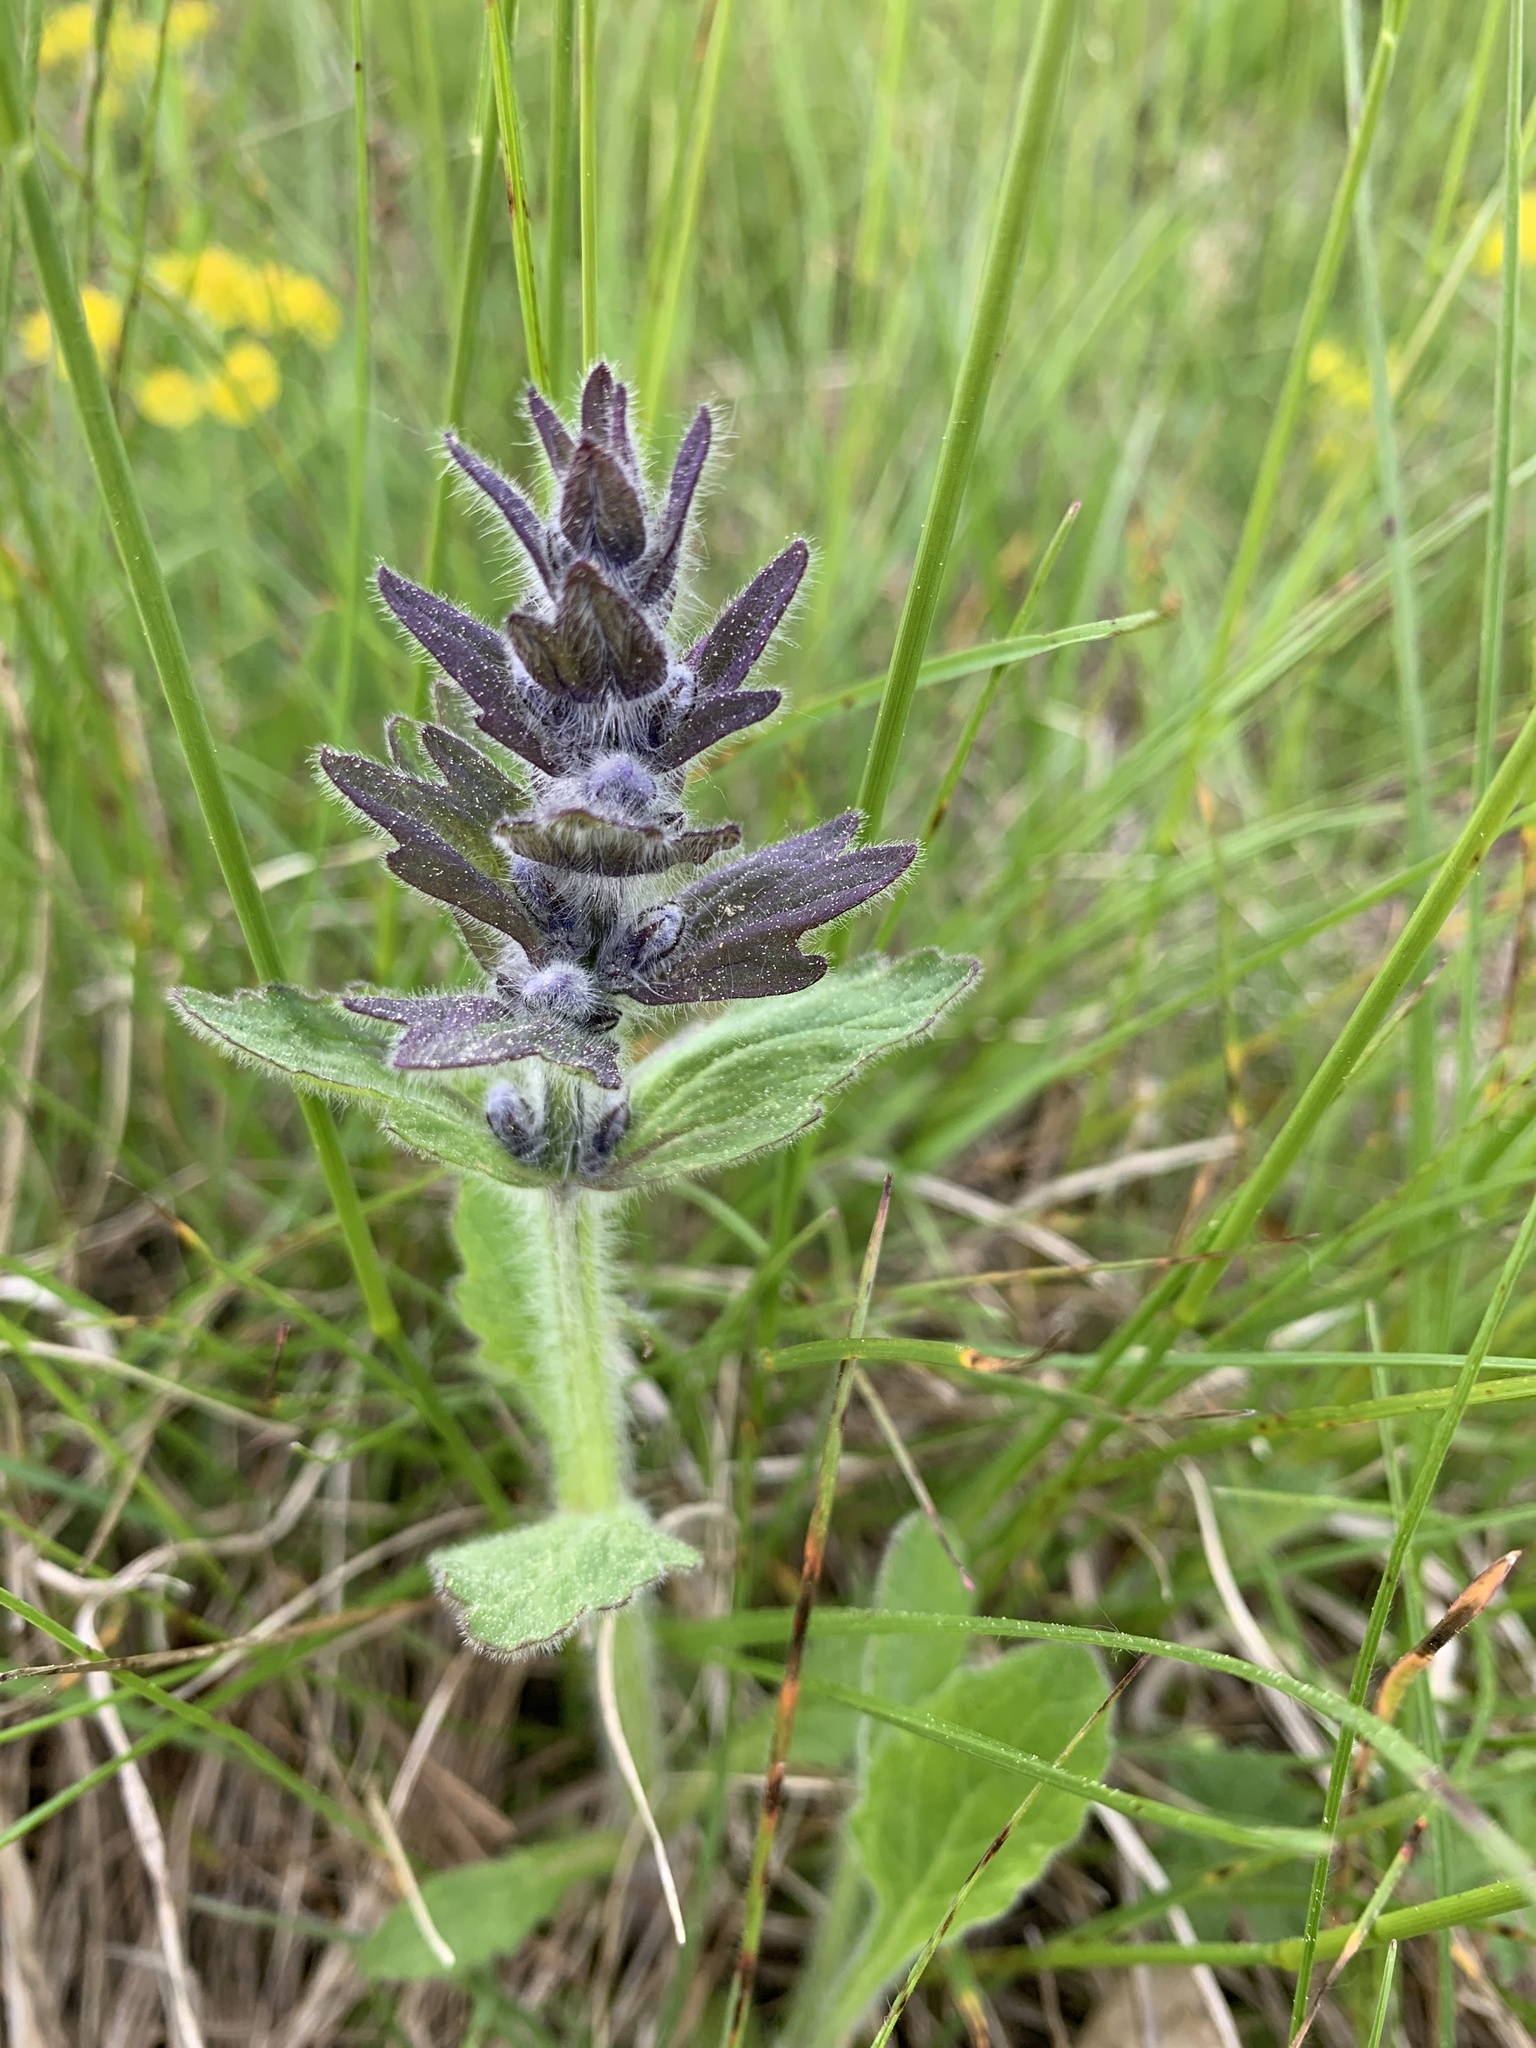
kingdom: Plantae
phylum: Tracheophyta
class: Magnoliopsida
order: Lamiales
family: Lamiaceae
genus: Ajuga
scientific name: Ajuga genevensis
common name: Blue bugle
